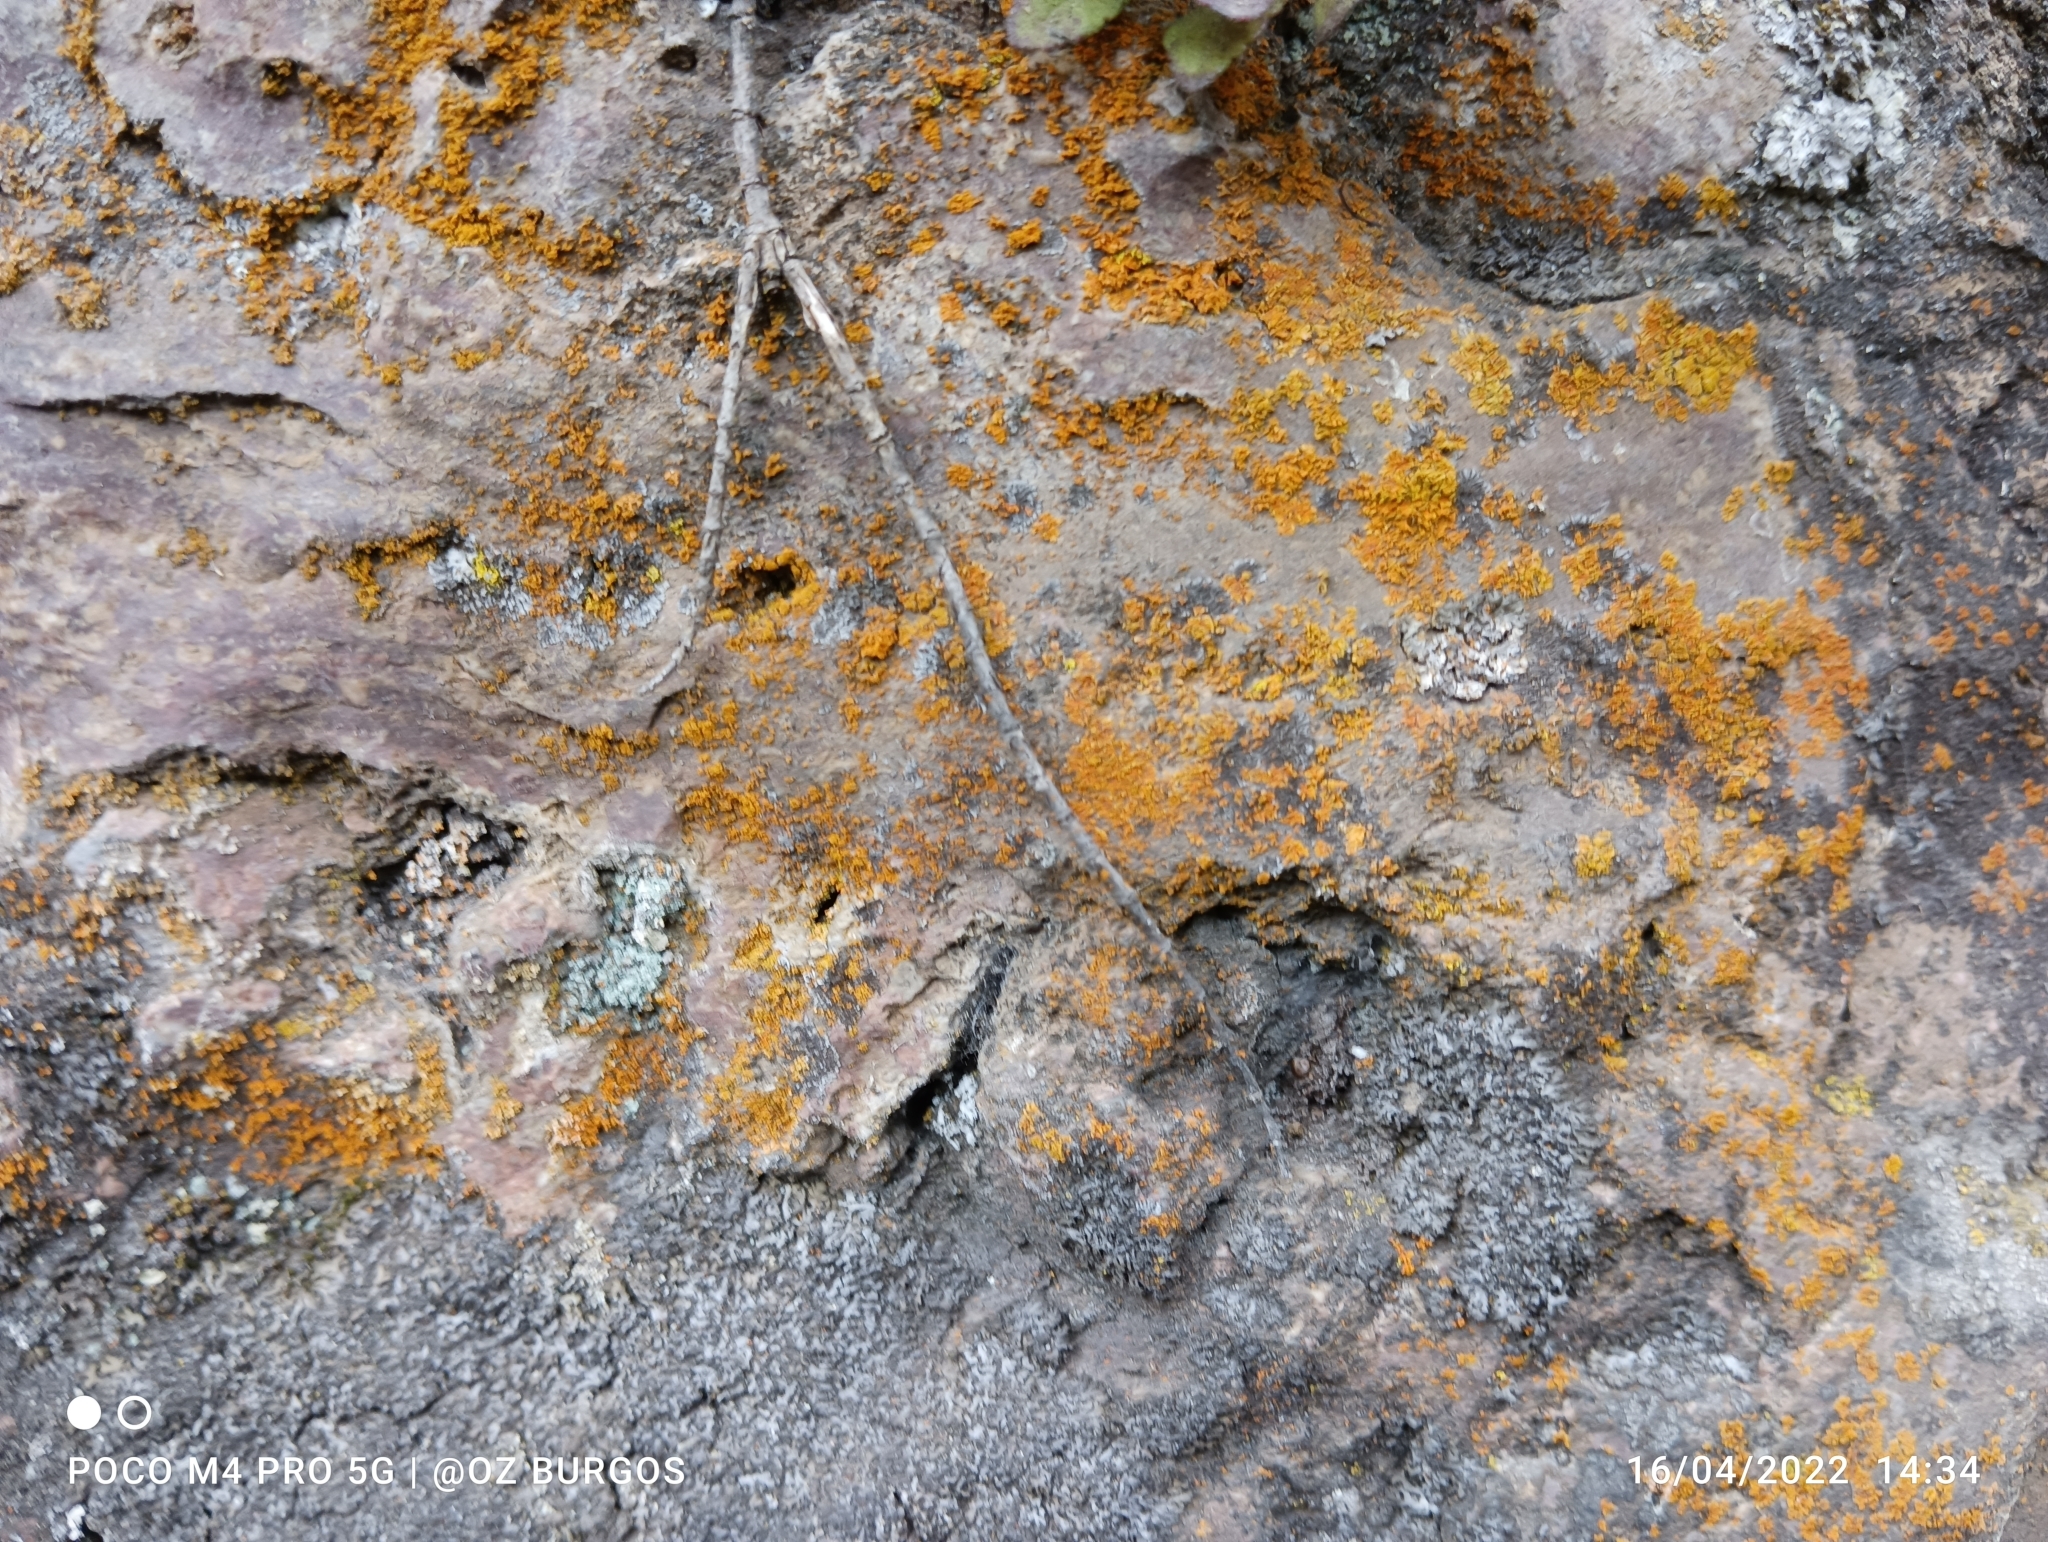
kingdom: Fungi
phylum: Ascomycota
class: Lecanoromycetes
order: Teloschistales
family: Teloschistaceae
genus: Squamulea
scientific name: Squamulea subsoluta
